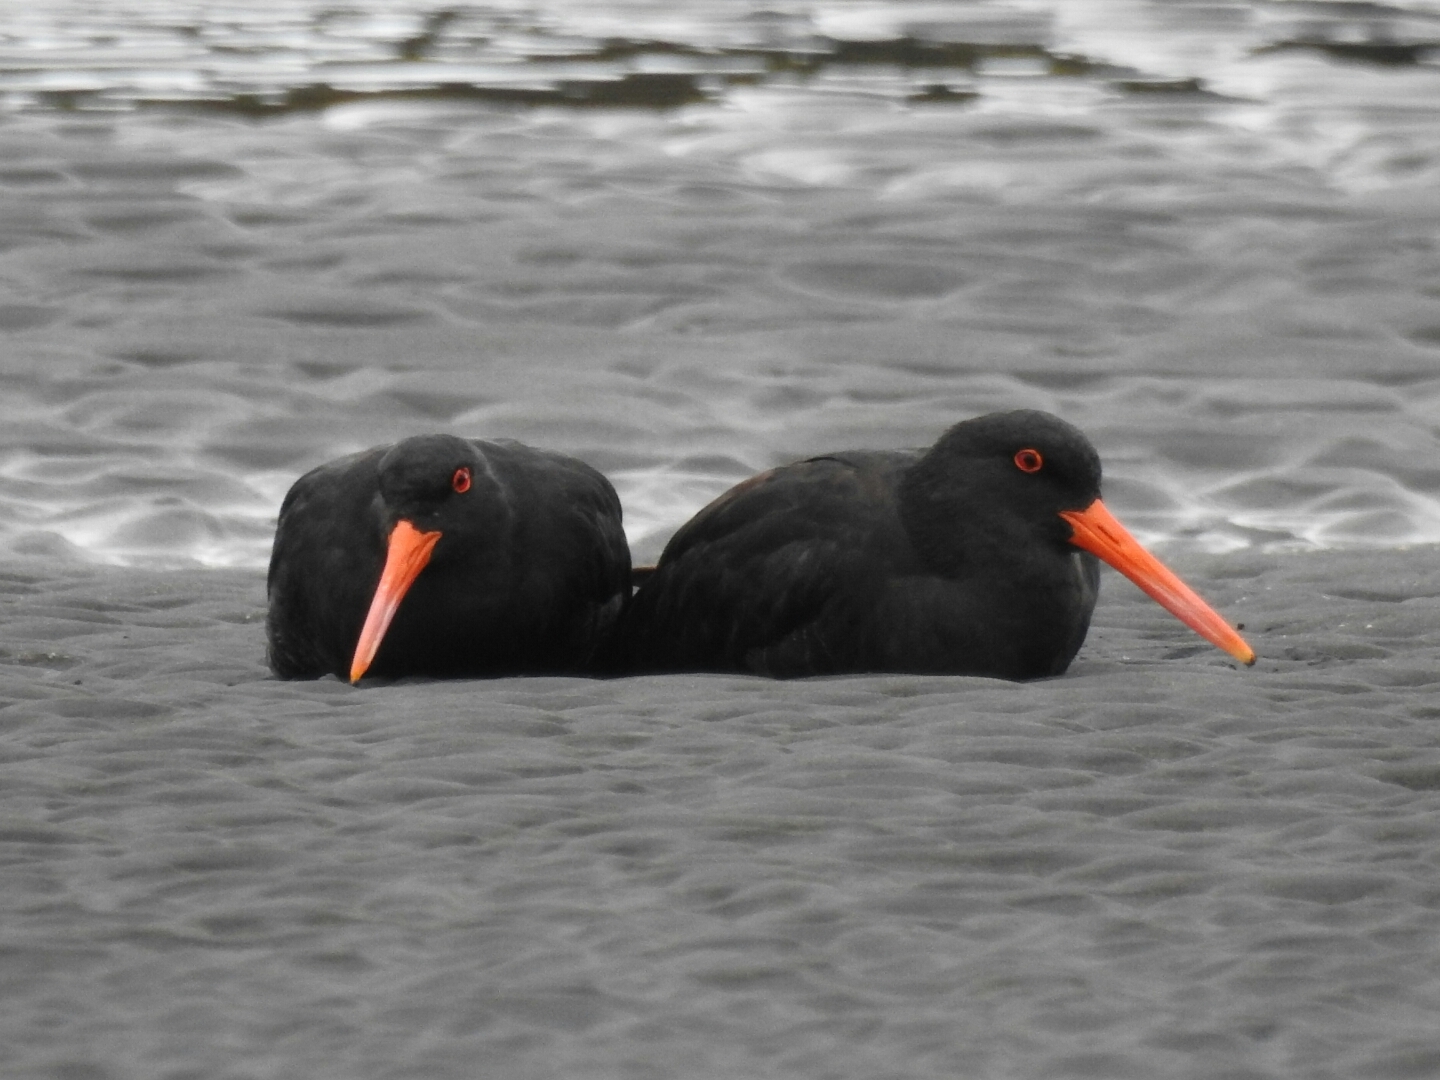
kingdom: Animalia
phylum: Chordata
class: Aves
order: Charadriiformes
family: Haematopodidae
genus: Haematopus
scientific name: Haematopus unicolor
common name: Variable oystercatcher
